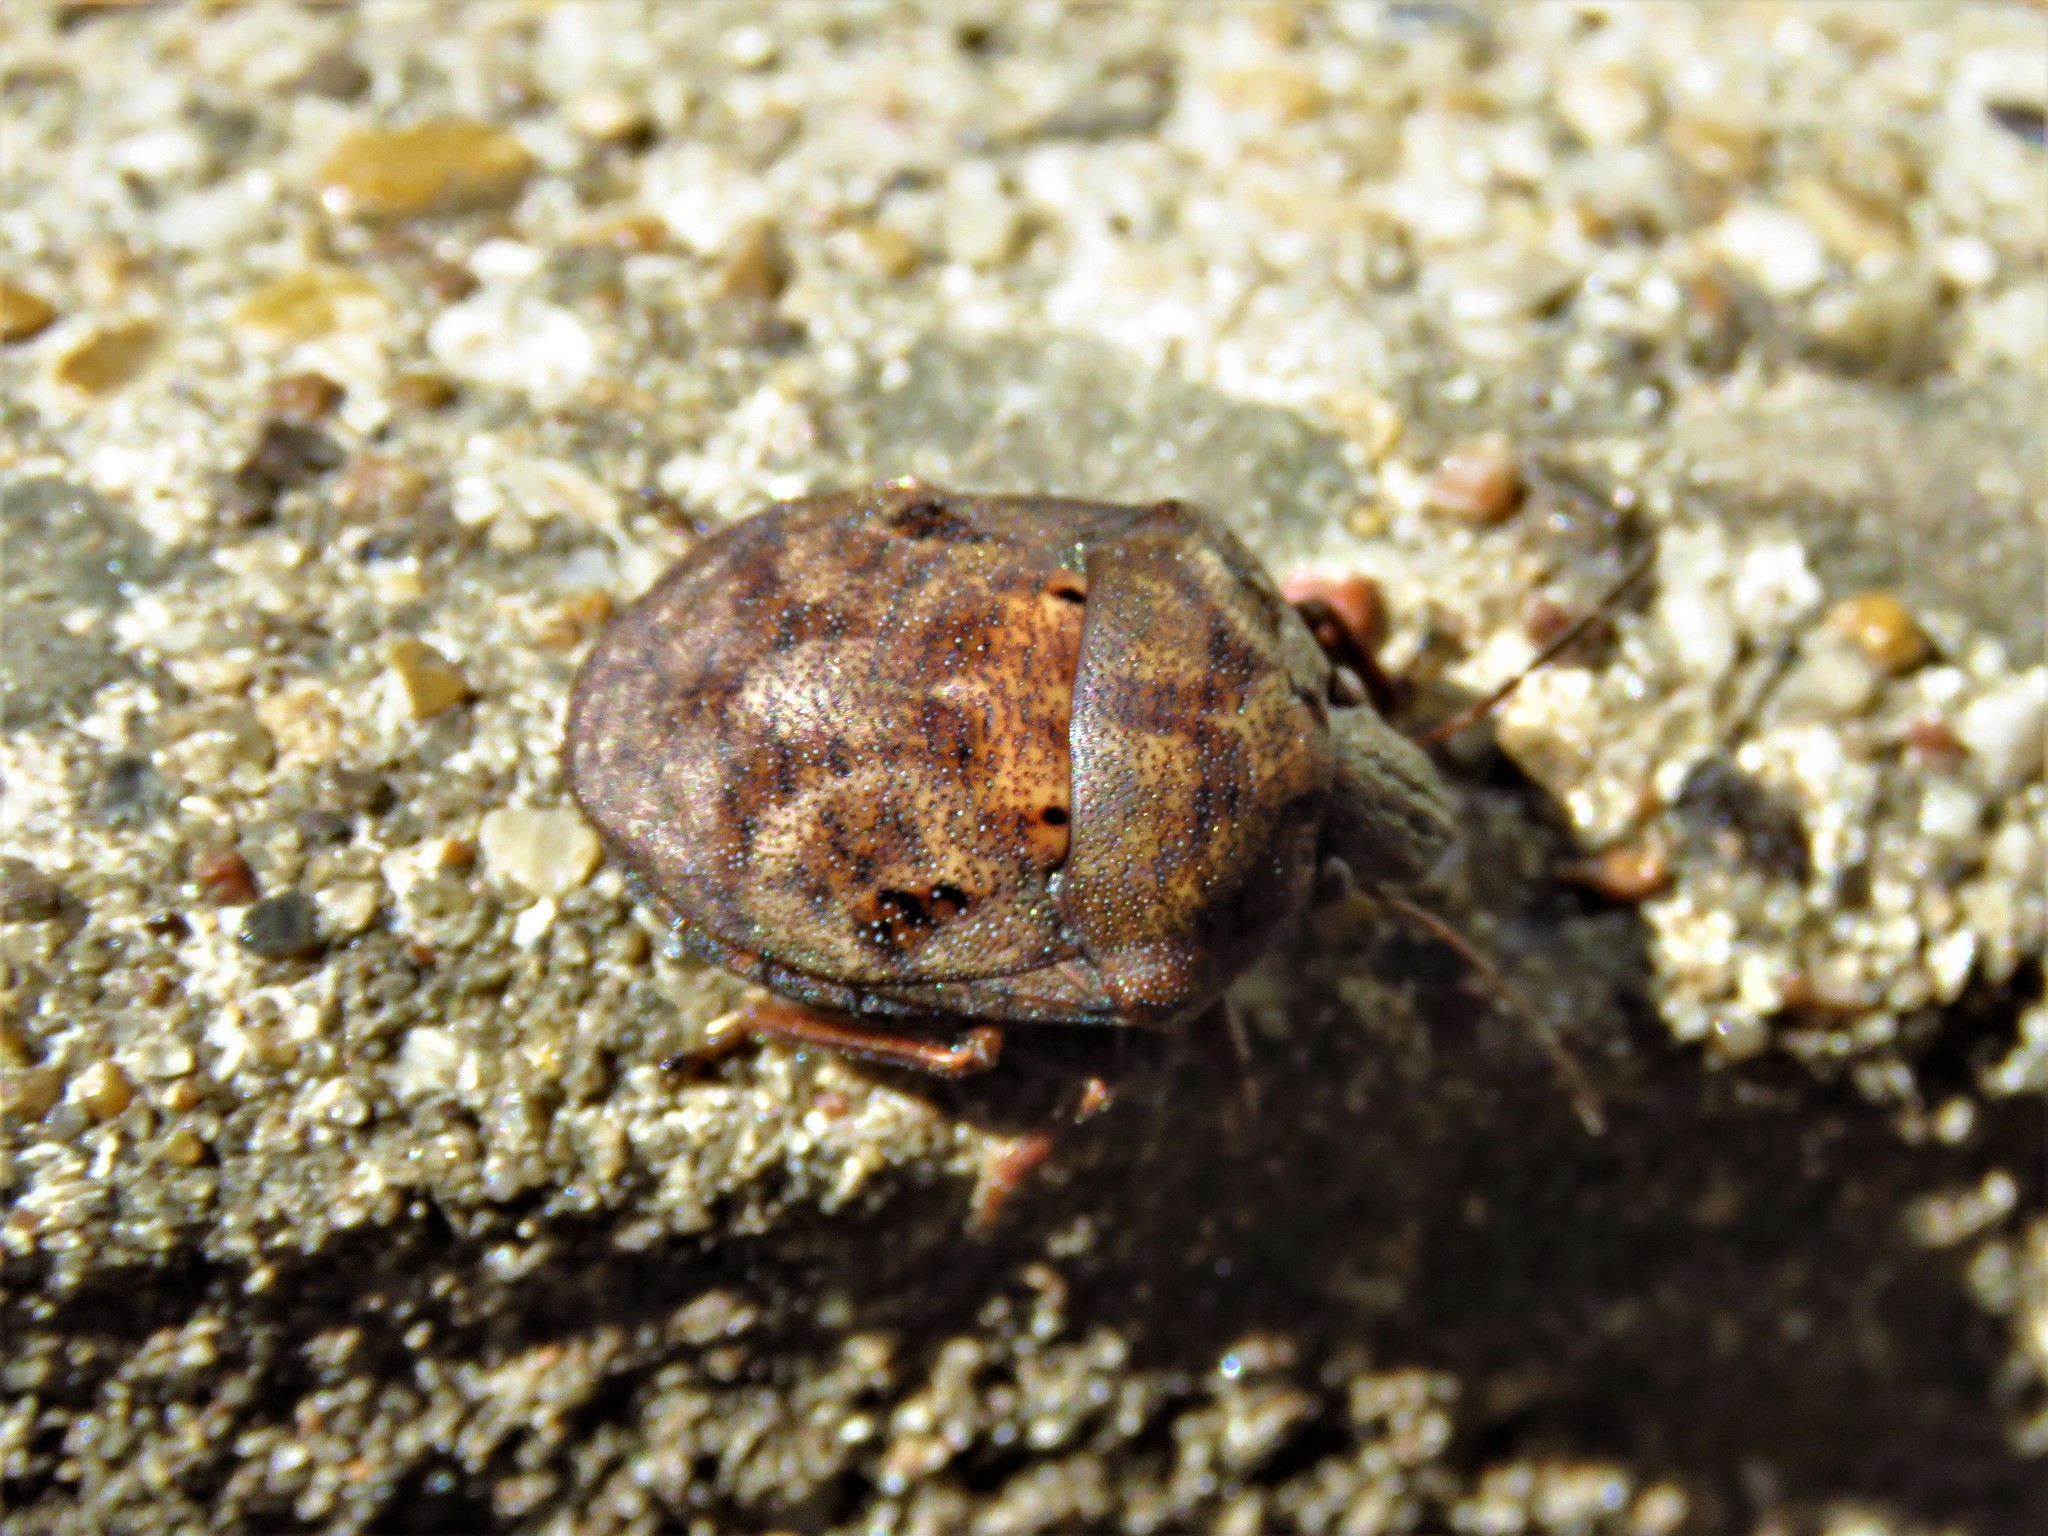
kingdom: Animalia
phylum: Arthropoda
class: Insecta
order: Hemiptera
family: Scutelleridae
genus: Tetyra
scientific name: Tetyra bipunctata
